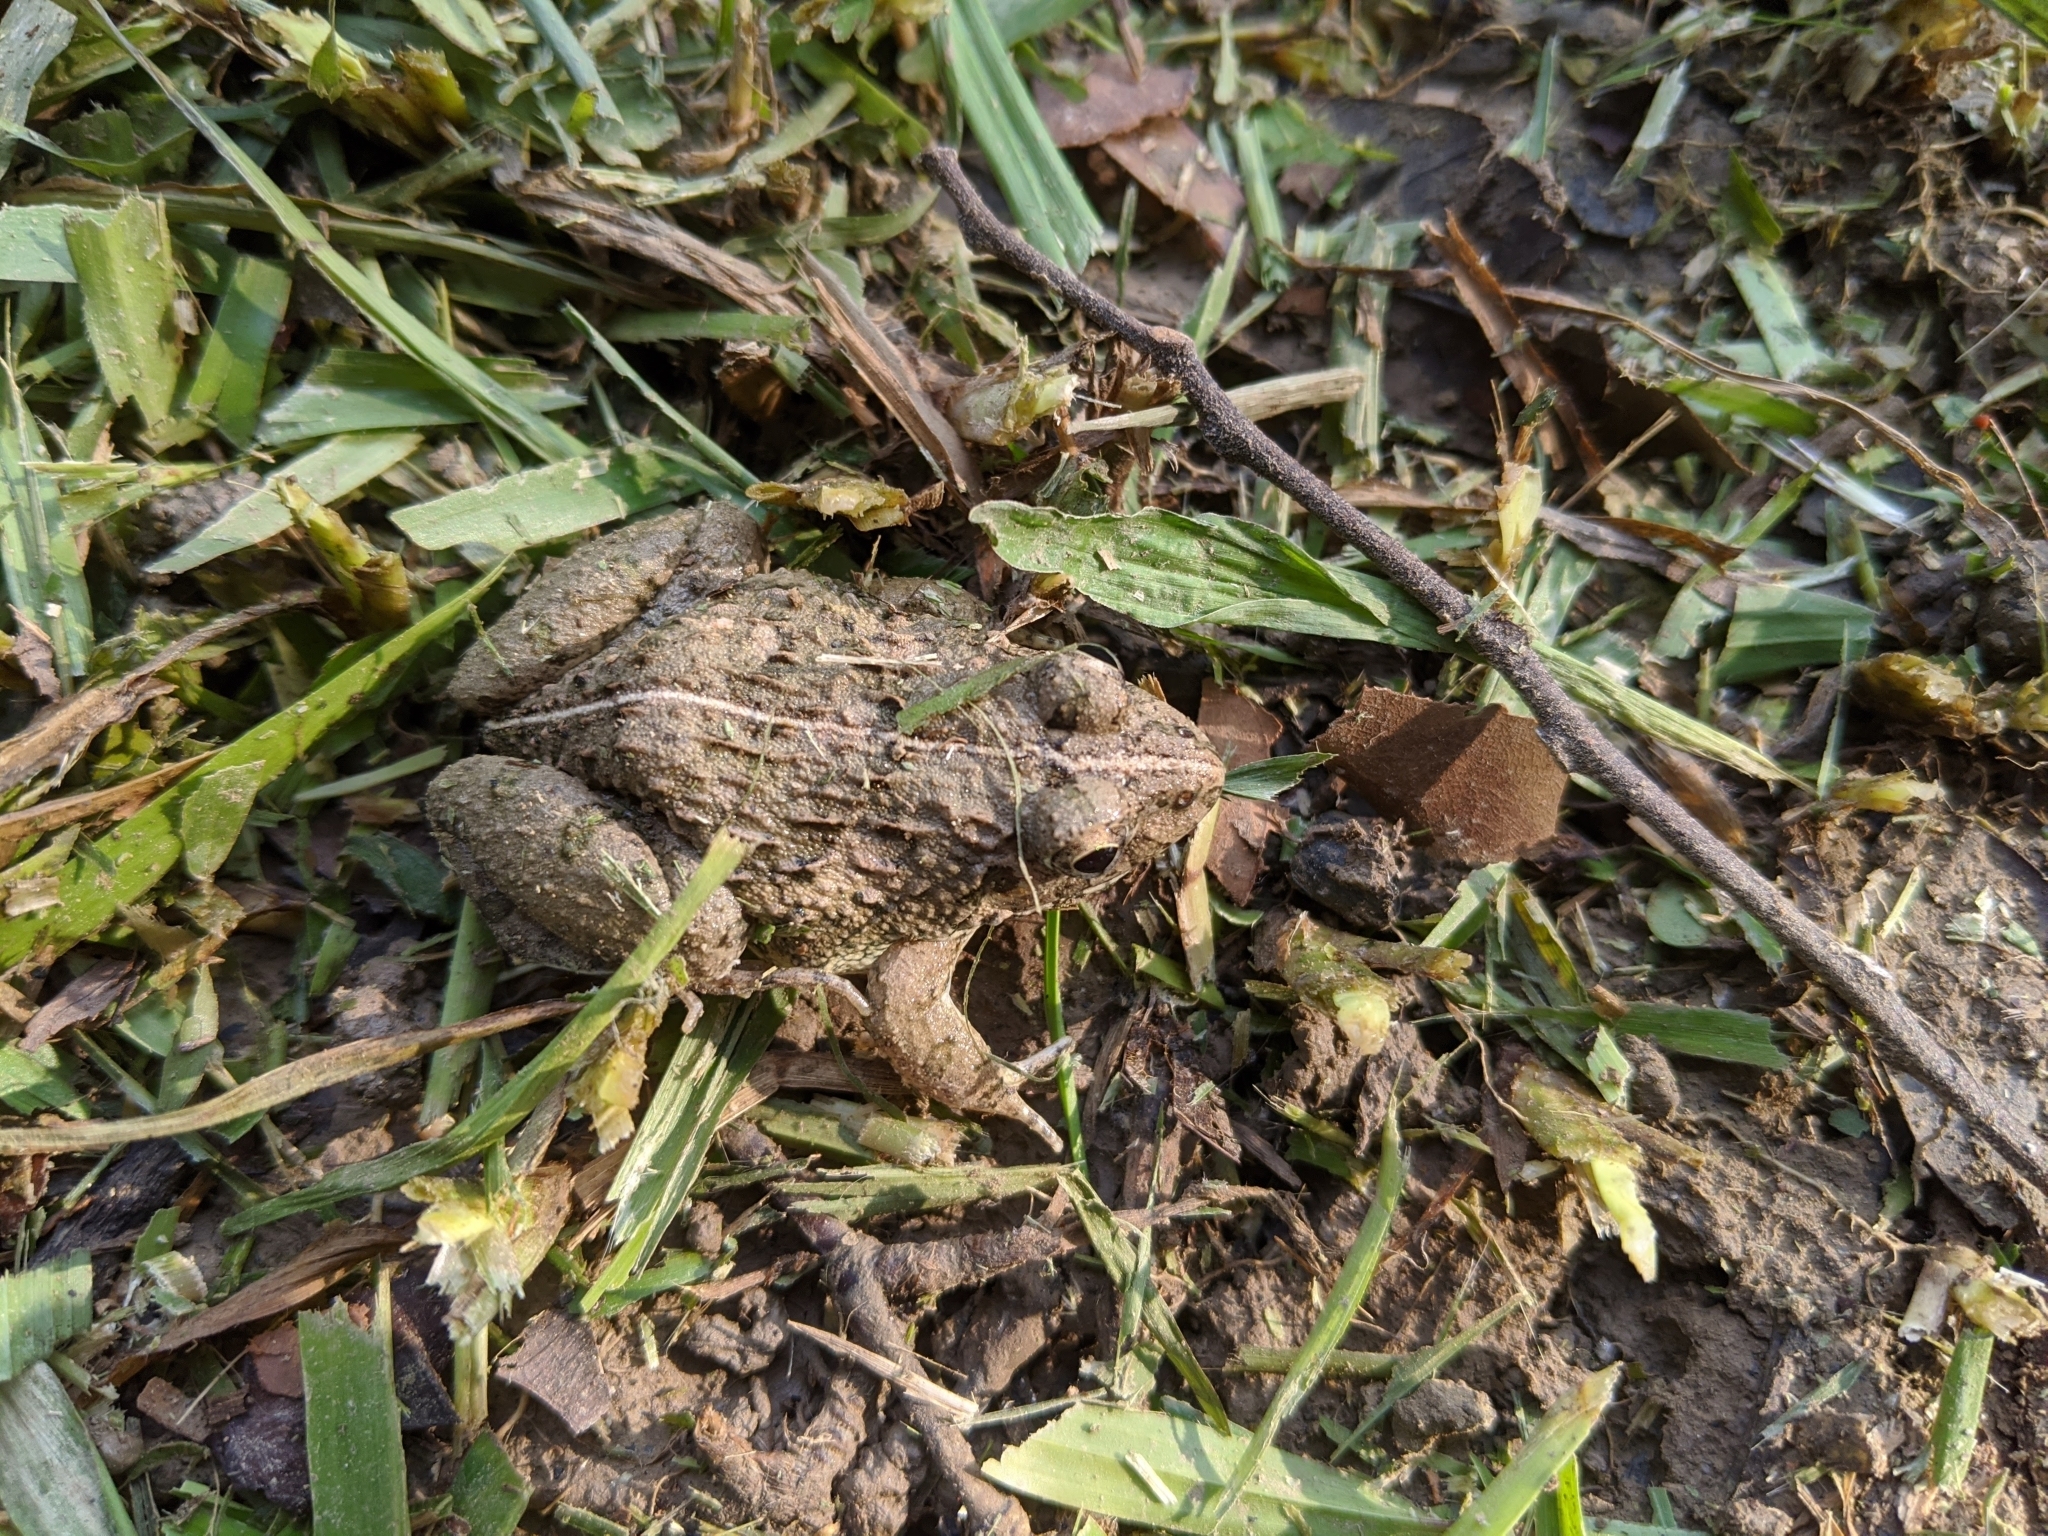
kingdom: Animalia
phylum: Chordata
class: Amphibia
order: Anura
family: Dicroglossidae
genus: Fejervarya
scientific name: Fejervarya limnocharis
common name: Asian grass frog/common pond frog/field frog/grass frog/indian rice frog
